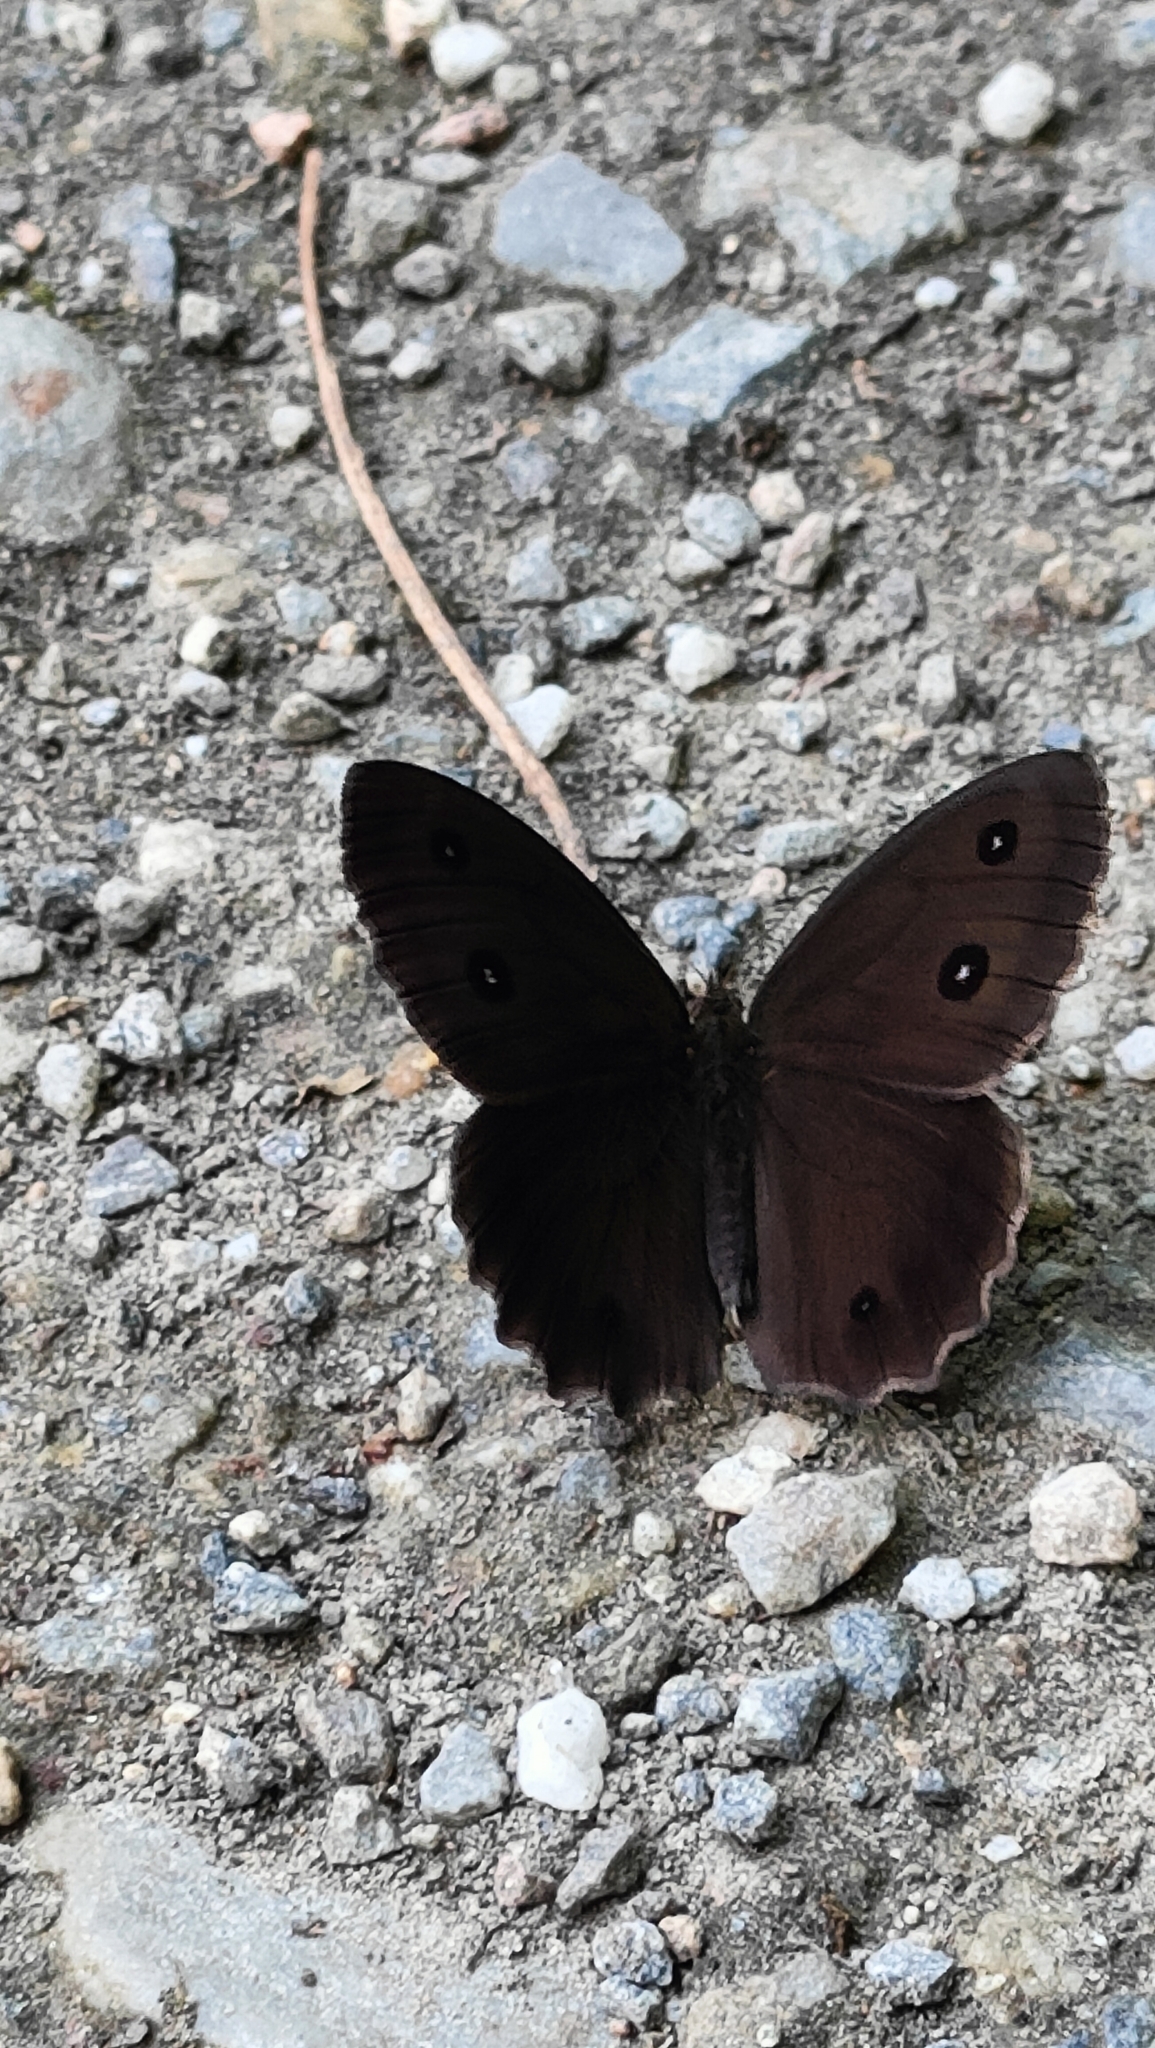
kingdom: Animalia
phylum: Arthropoda
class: Insecta
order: Lepidoptera
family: Nymphalidae
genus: Minois
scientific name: Minois dryas
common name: Dryad
